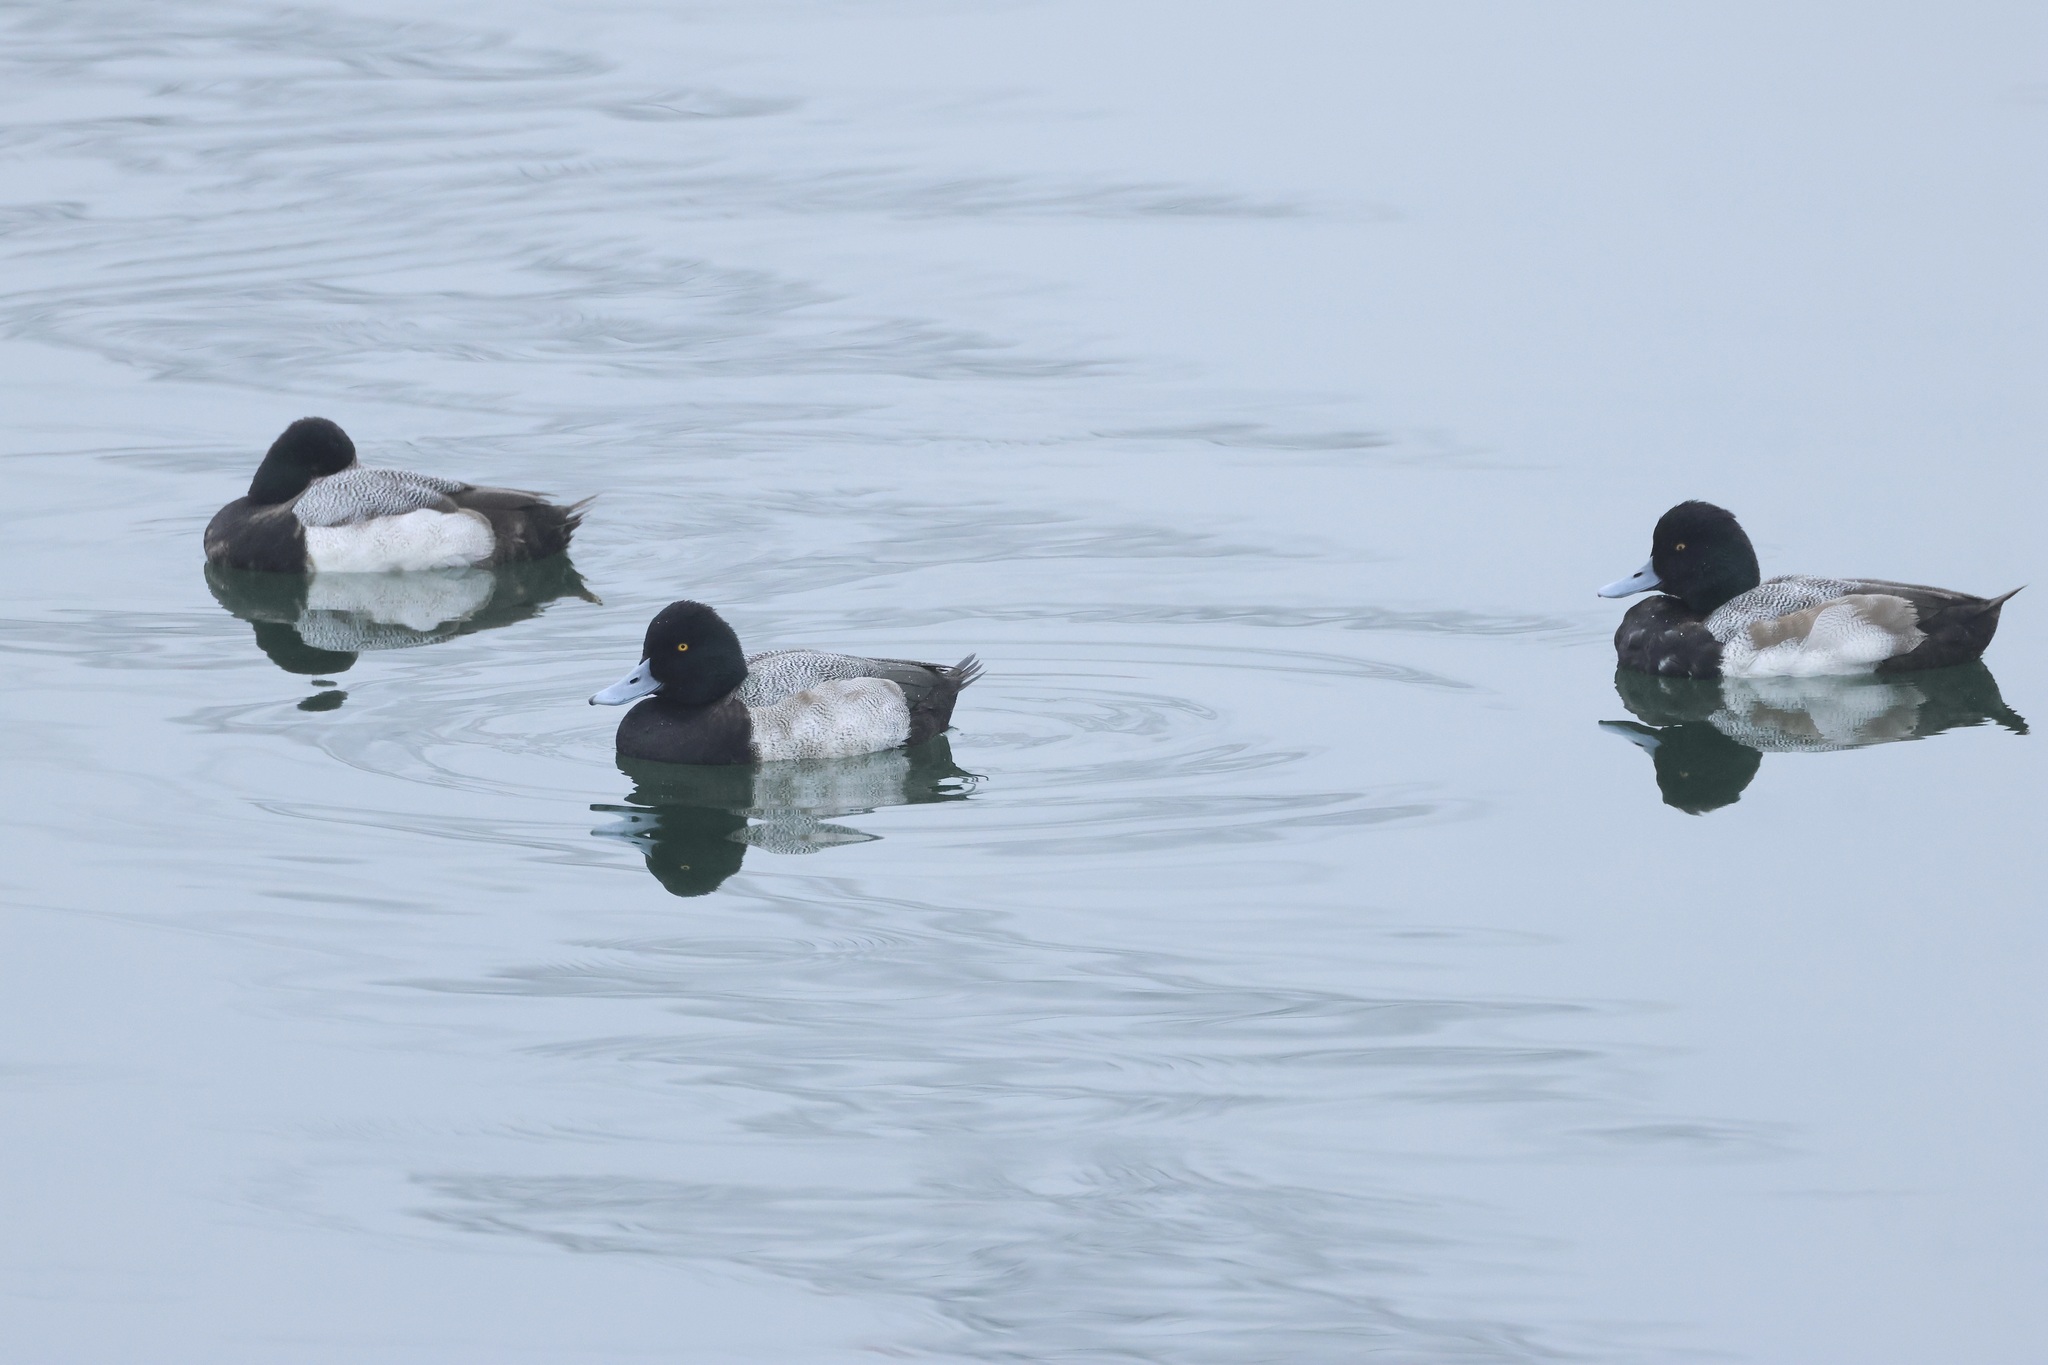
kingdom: Animalia
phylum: Chordata
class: Aves
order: Anseriformes
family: Anatidae
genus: Aythya
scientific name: Aythya affinis
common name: Lesser scaup
